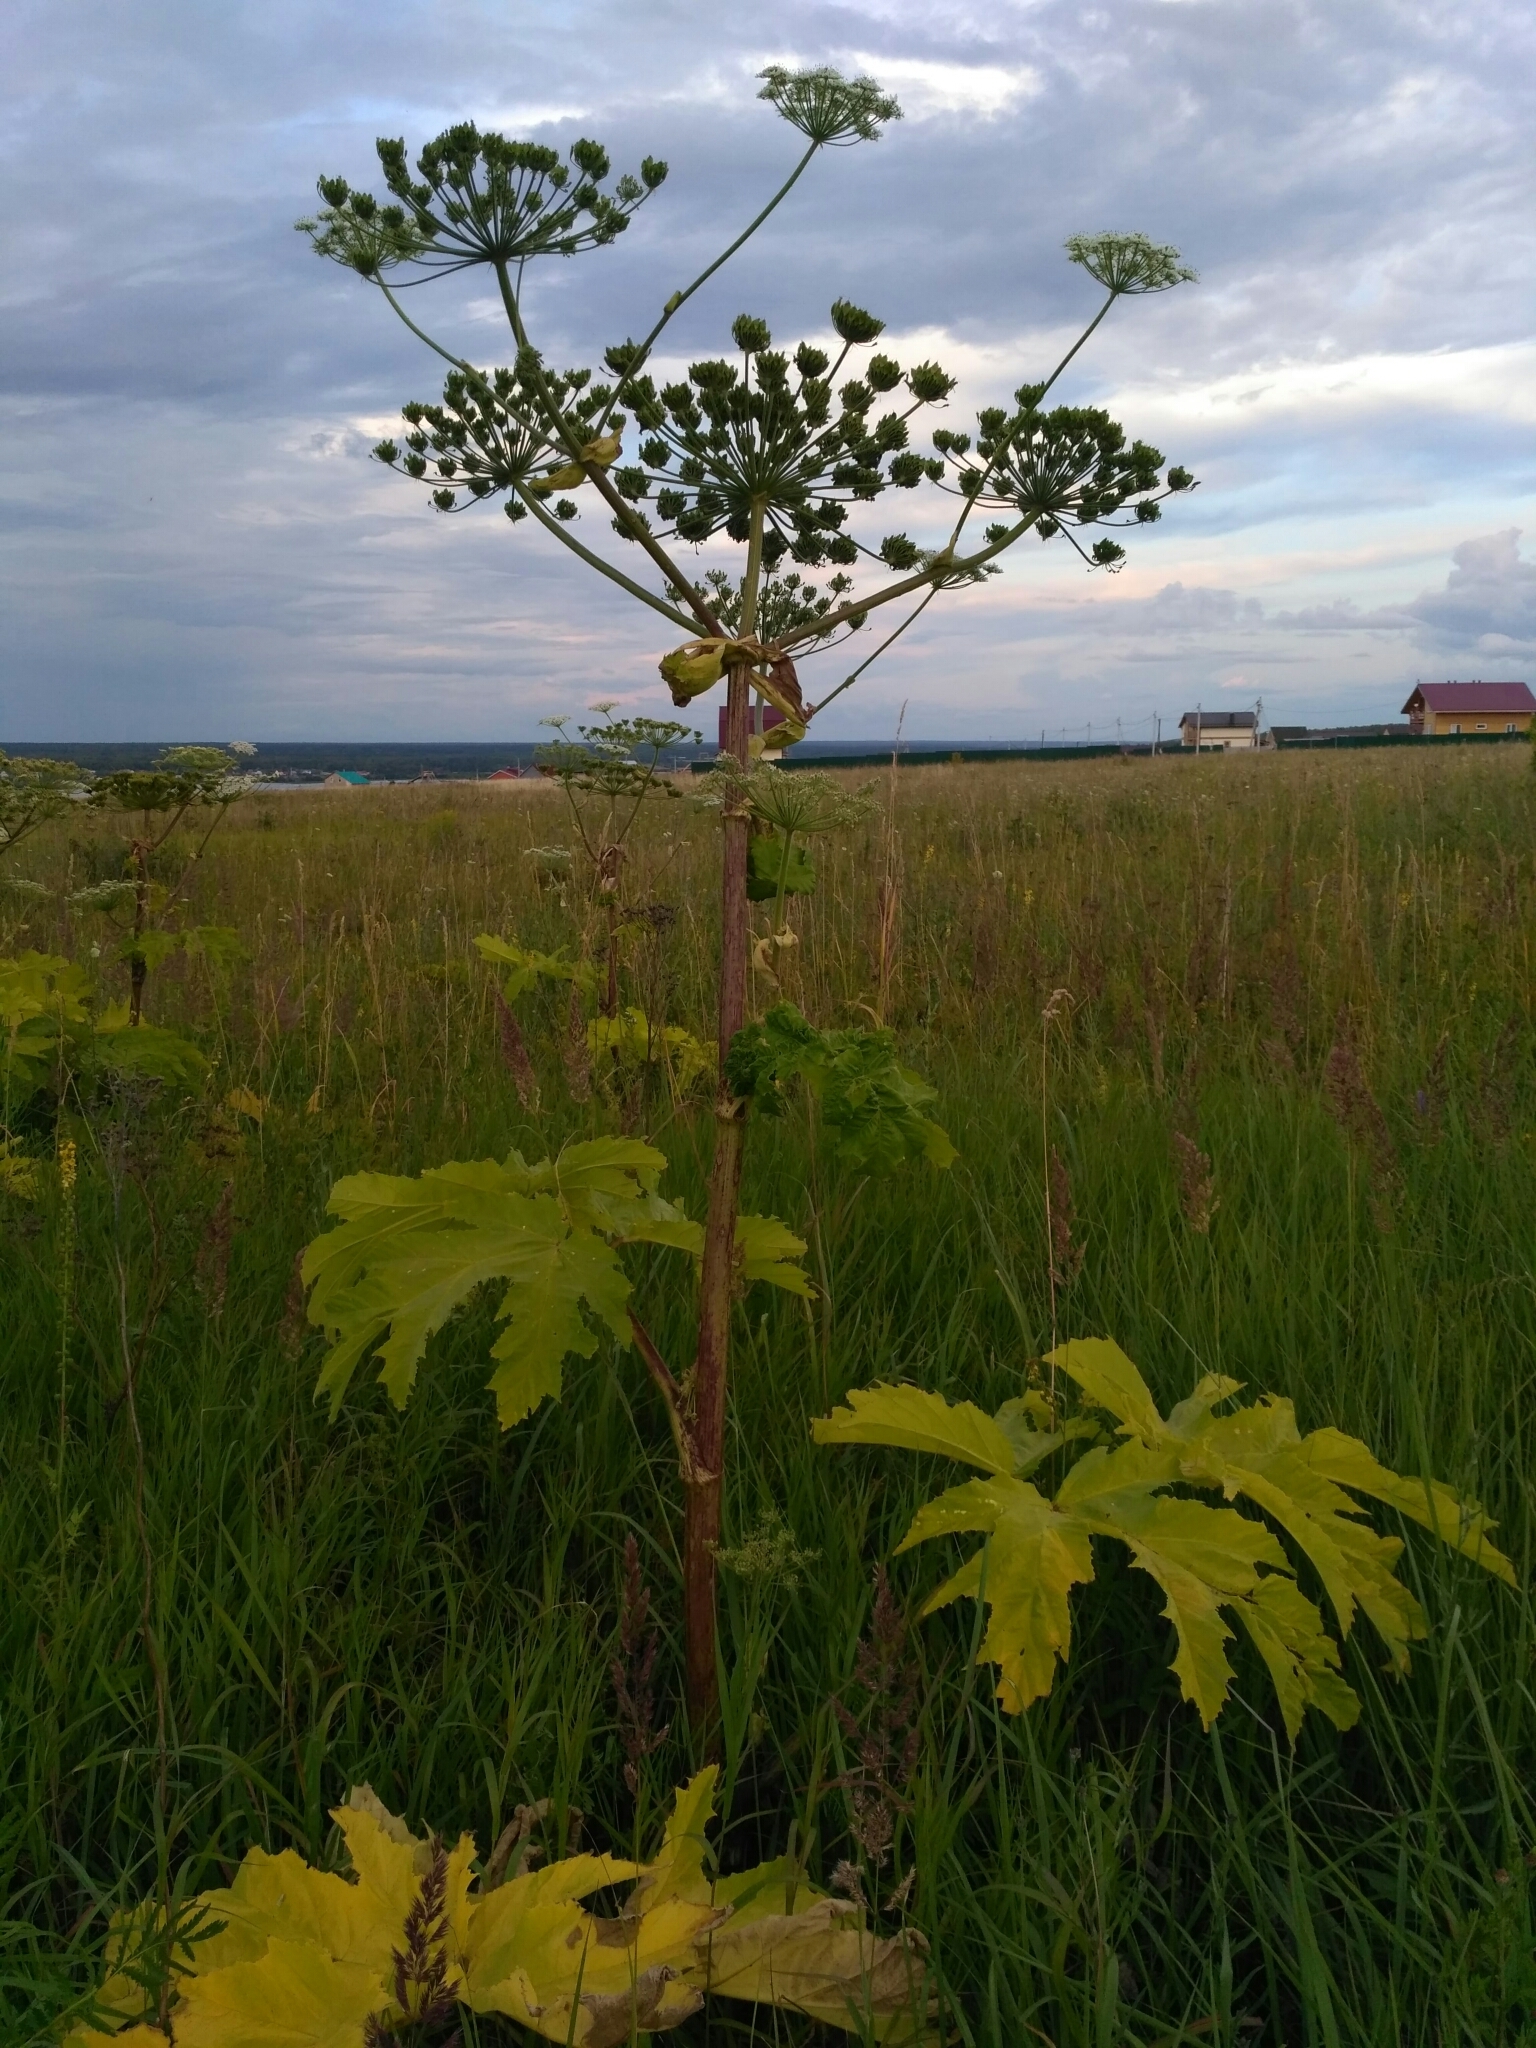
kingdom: Plantae
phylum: Tracheophyta
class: Magnoliopsida
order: Apiales
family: Apiaceae
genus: Heracleum
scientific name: Heracleum sosnowskyi
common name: Sosnowsky's hogweed
